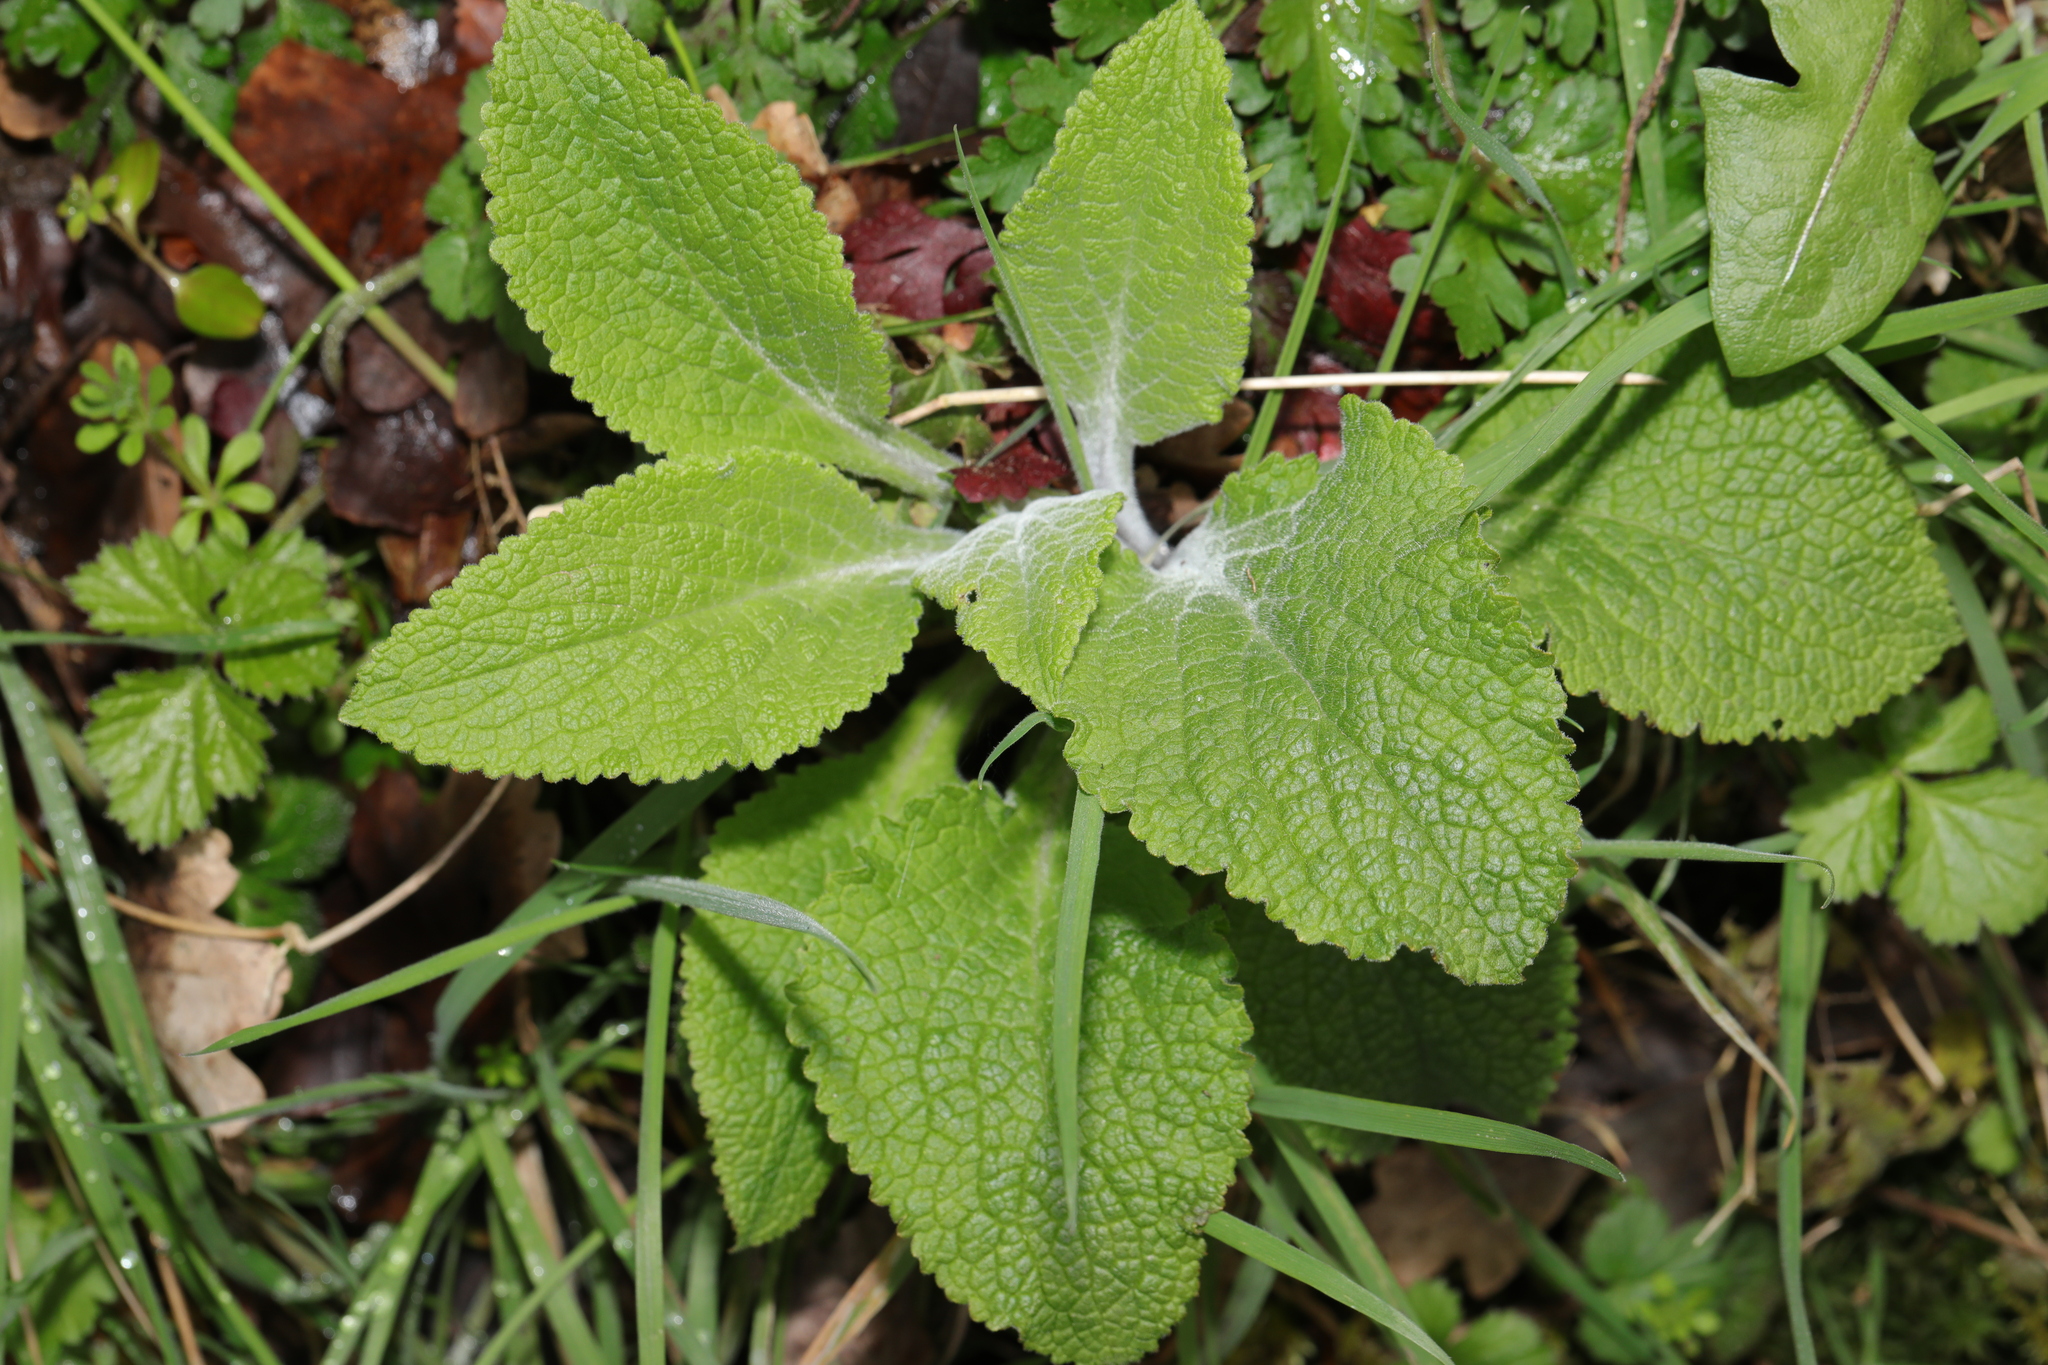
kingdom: Plantae
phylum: Tracheophyta
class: Magnoliopsida
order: Lamiales
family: Plantaginaceae
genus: Digitalis
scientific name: Digitalis purpurea
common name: Foxglove
